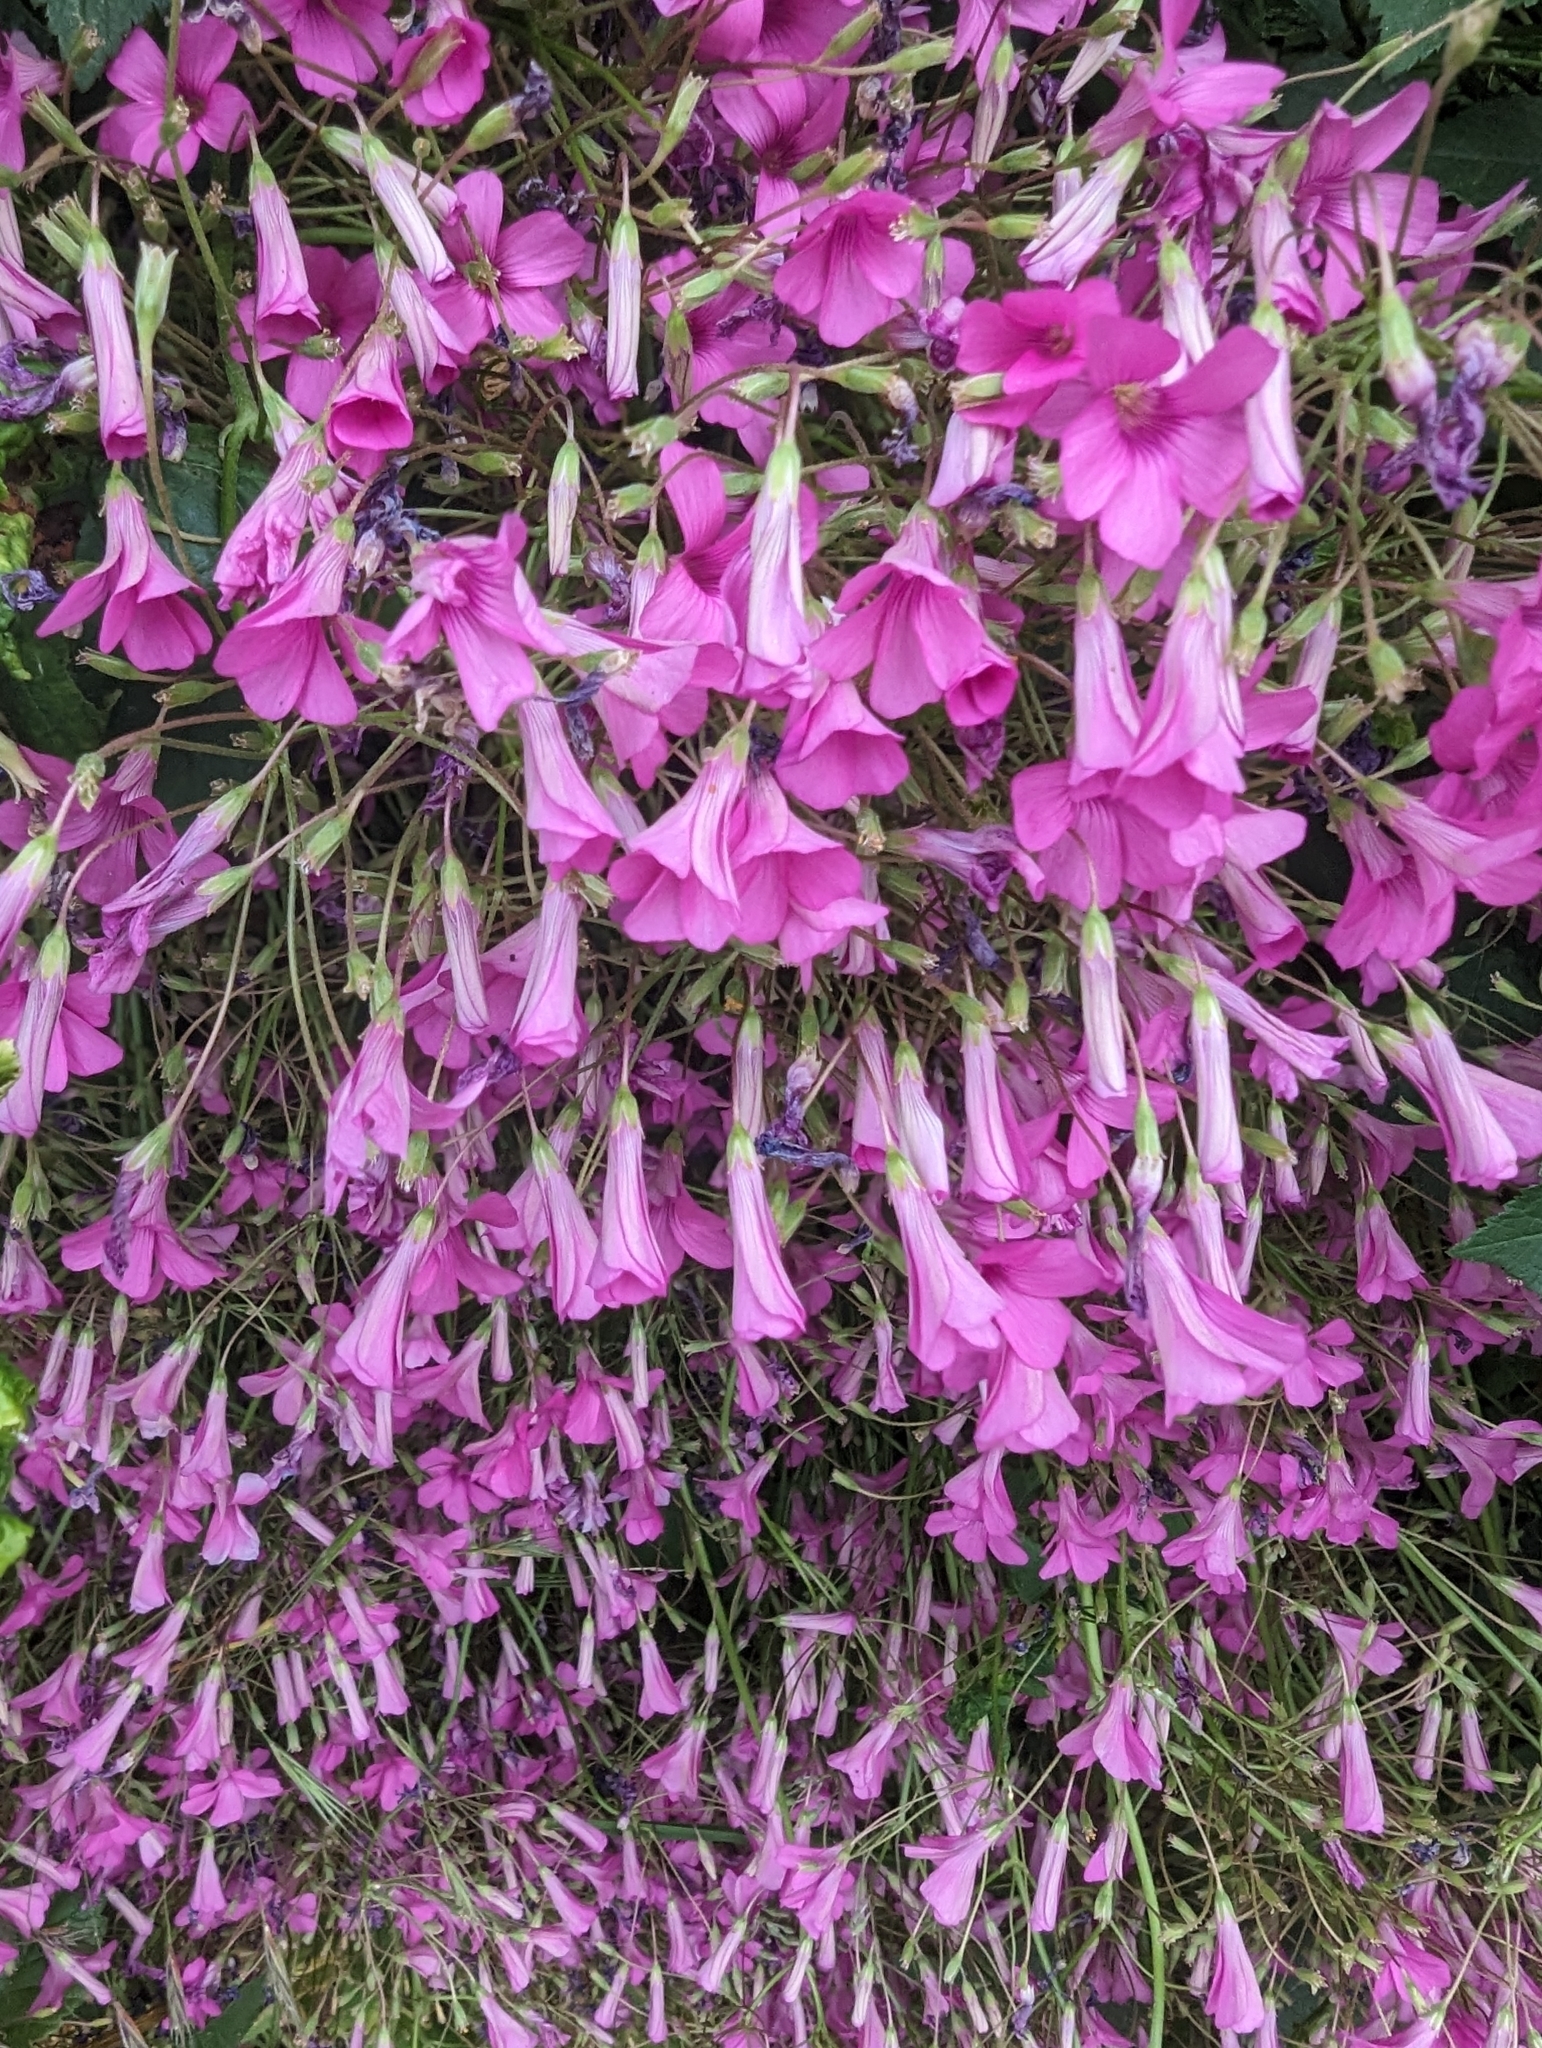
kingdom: Plantae
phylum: Tracheophyta
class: Magnoliopsida
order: Oxalidales
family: Oxalidaceae
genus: Oxalis
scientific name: Oxalis articulata
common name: Pink-sorrel
